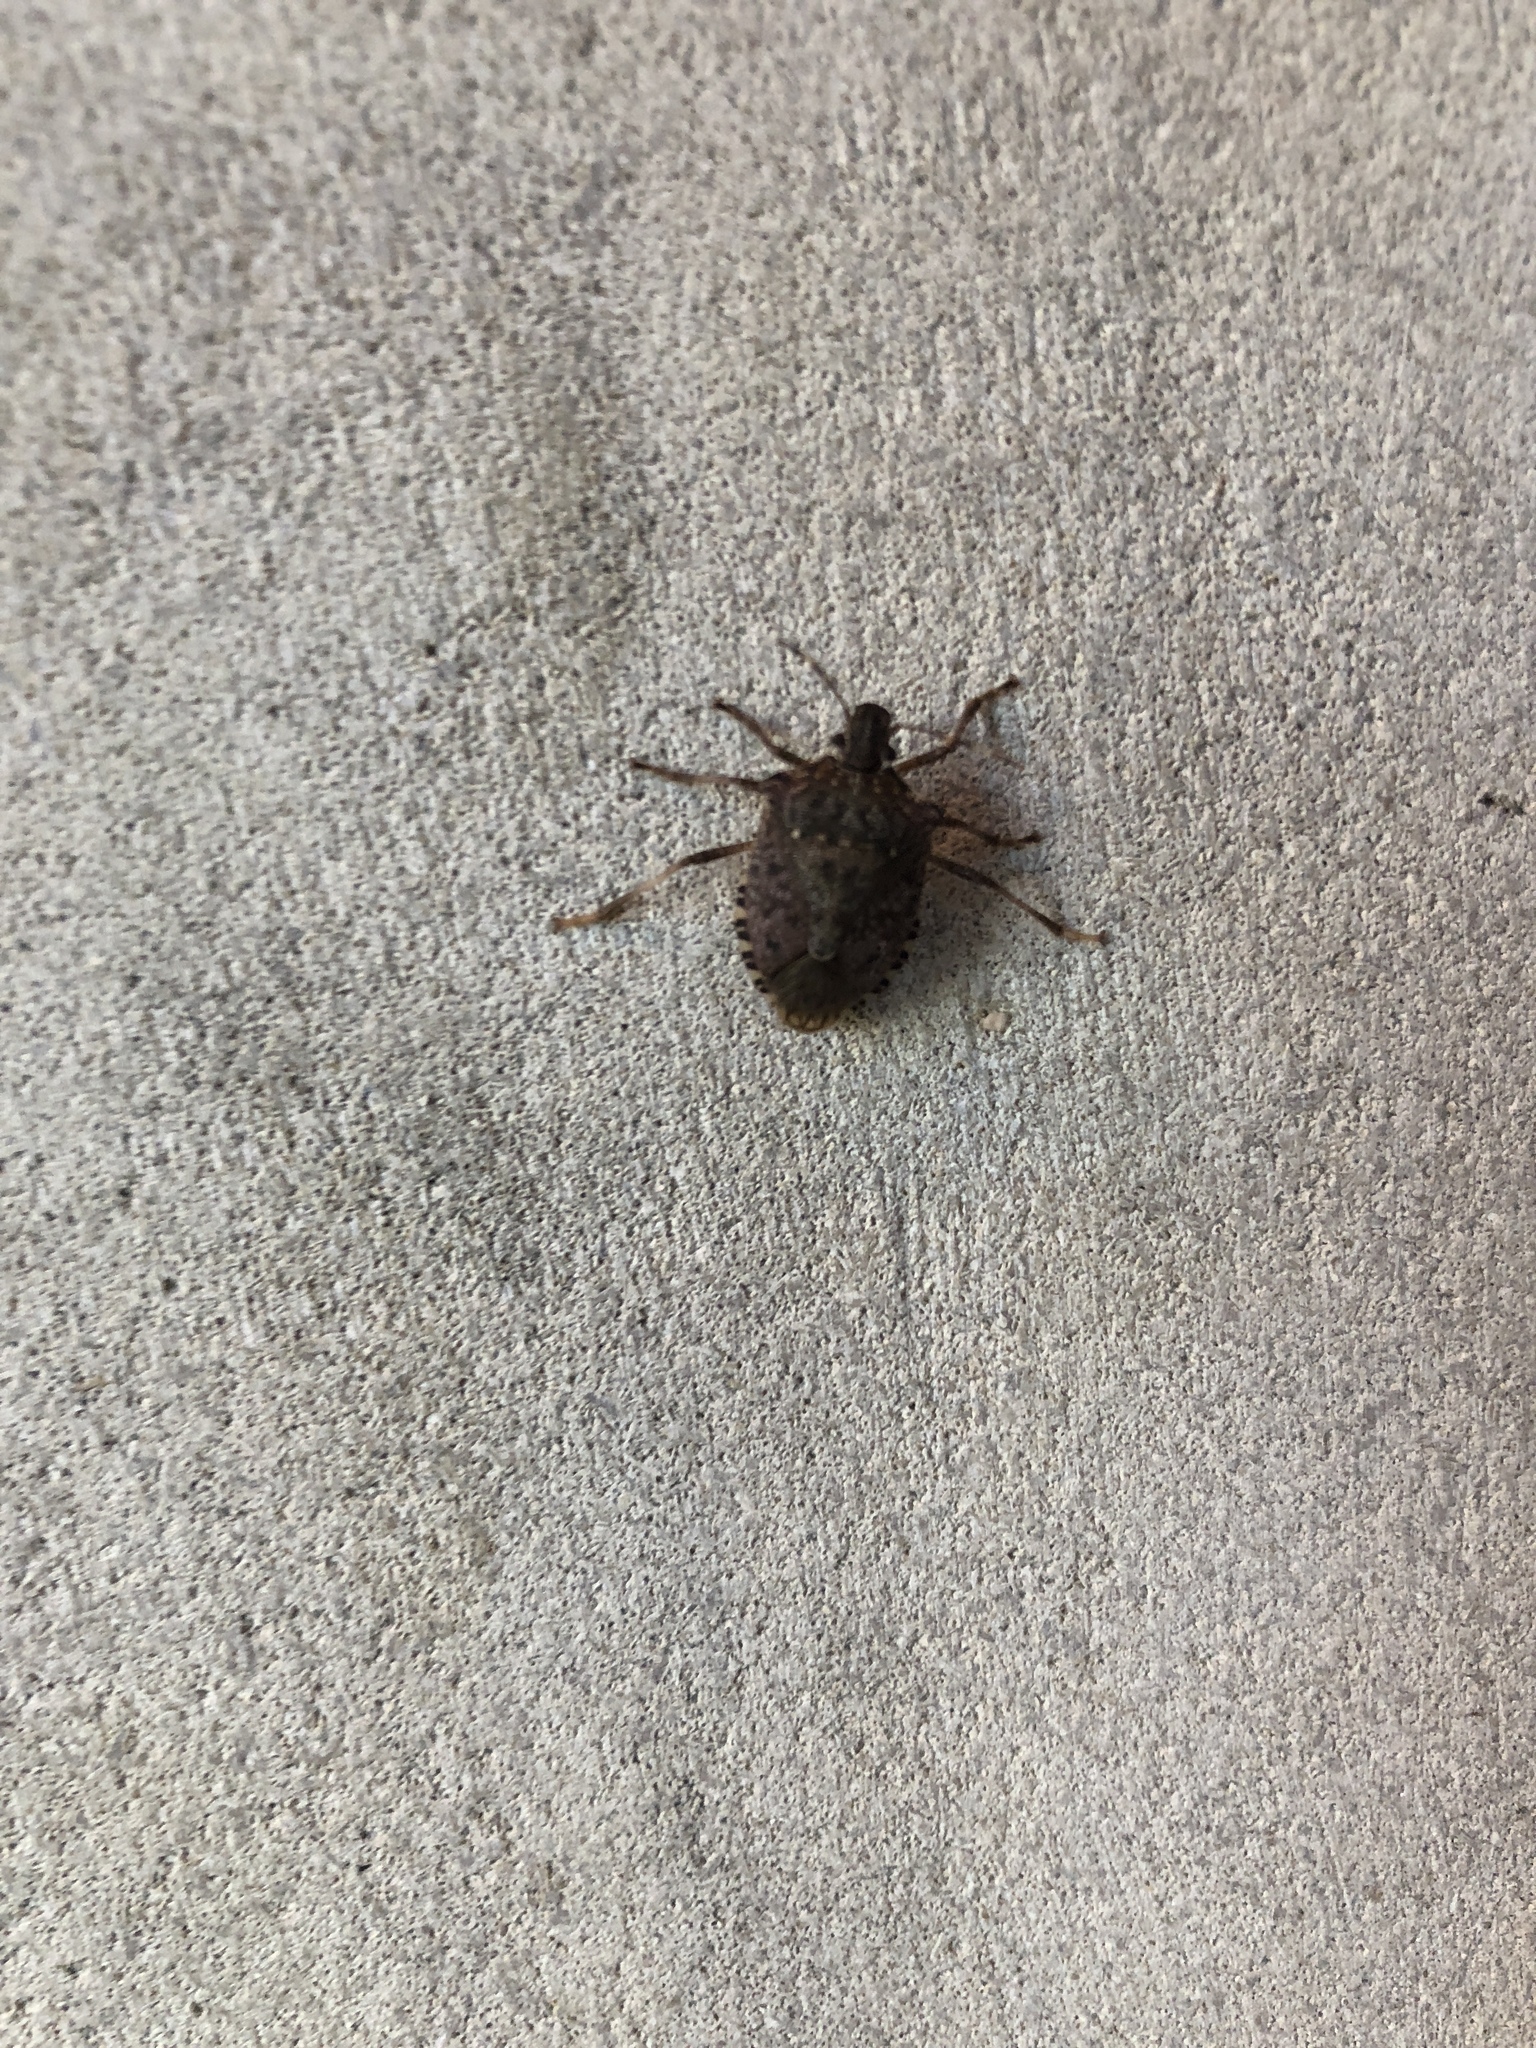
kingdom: Animalia
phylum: Arthropoda
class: Insecta
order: Hemiptera
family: Pentatomidae
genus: Halyomorpha
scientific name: Halyomorpha halys
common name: Brown marmorated stink bug
